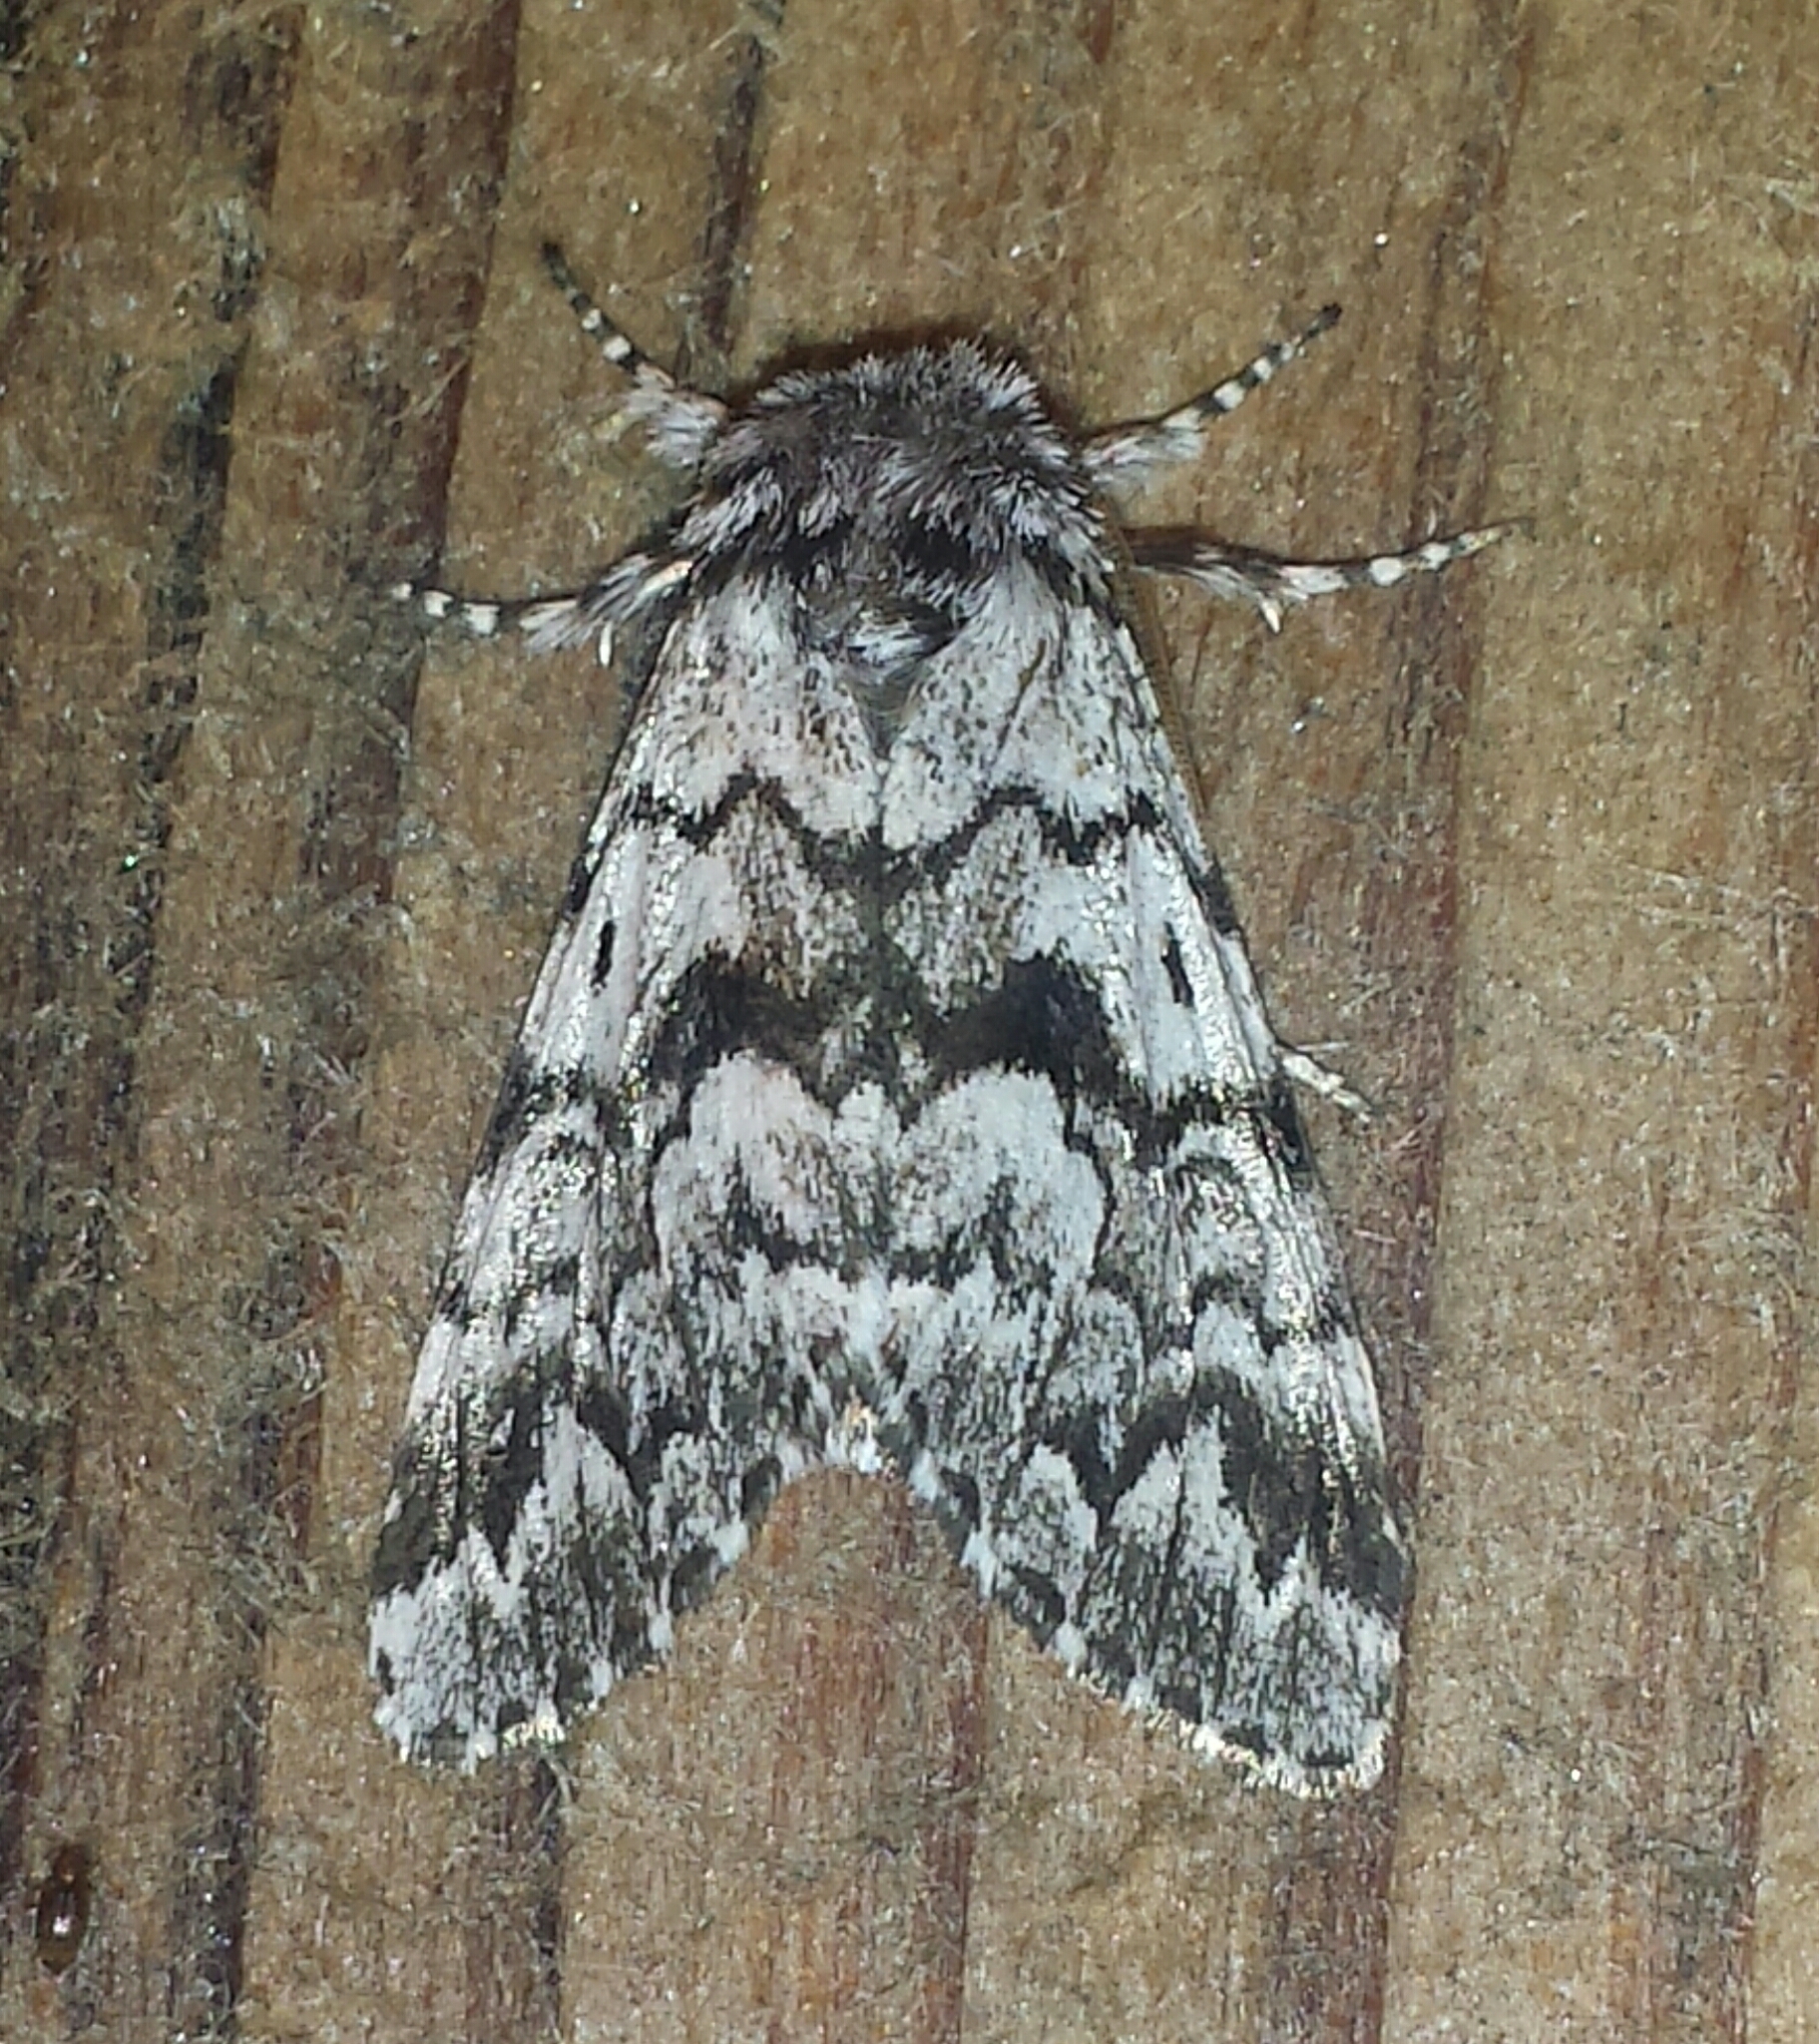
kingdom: Animalia
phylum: Arthropoda
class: Insecta
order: Lepidoptera
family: Noctuidae
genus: Panthea
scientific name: Panthea acronyctoides
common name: Black zigzag moth
